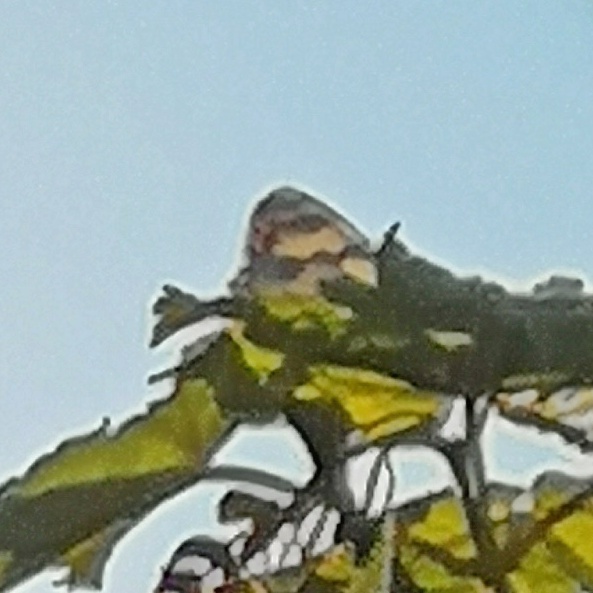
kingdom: Animalia
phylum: Arthropoda
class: Insecta
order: Lepidoptera
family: Nymphalidae
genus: Melanargia
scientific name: Melanargia galathea
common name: Marbled white
